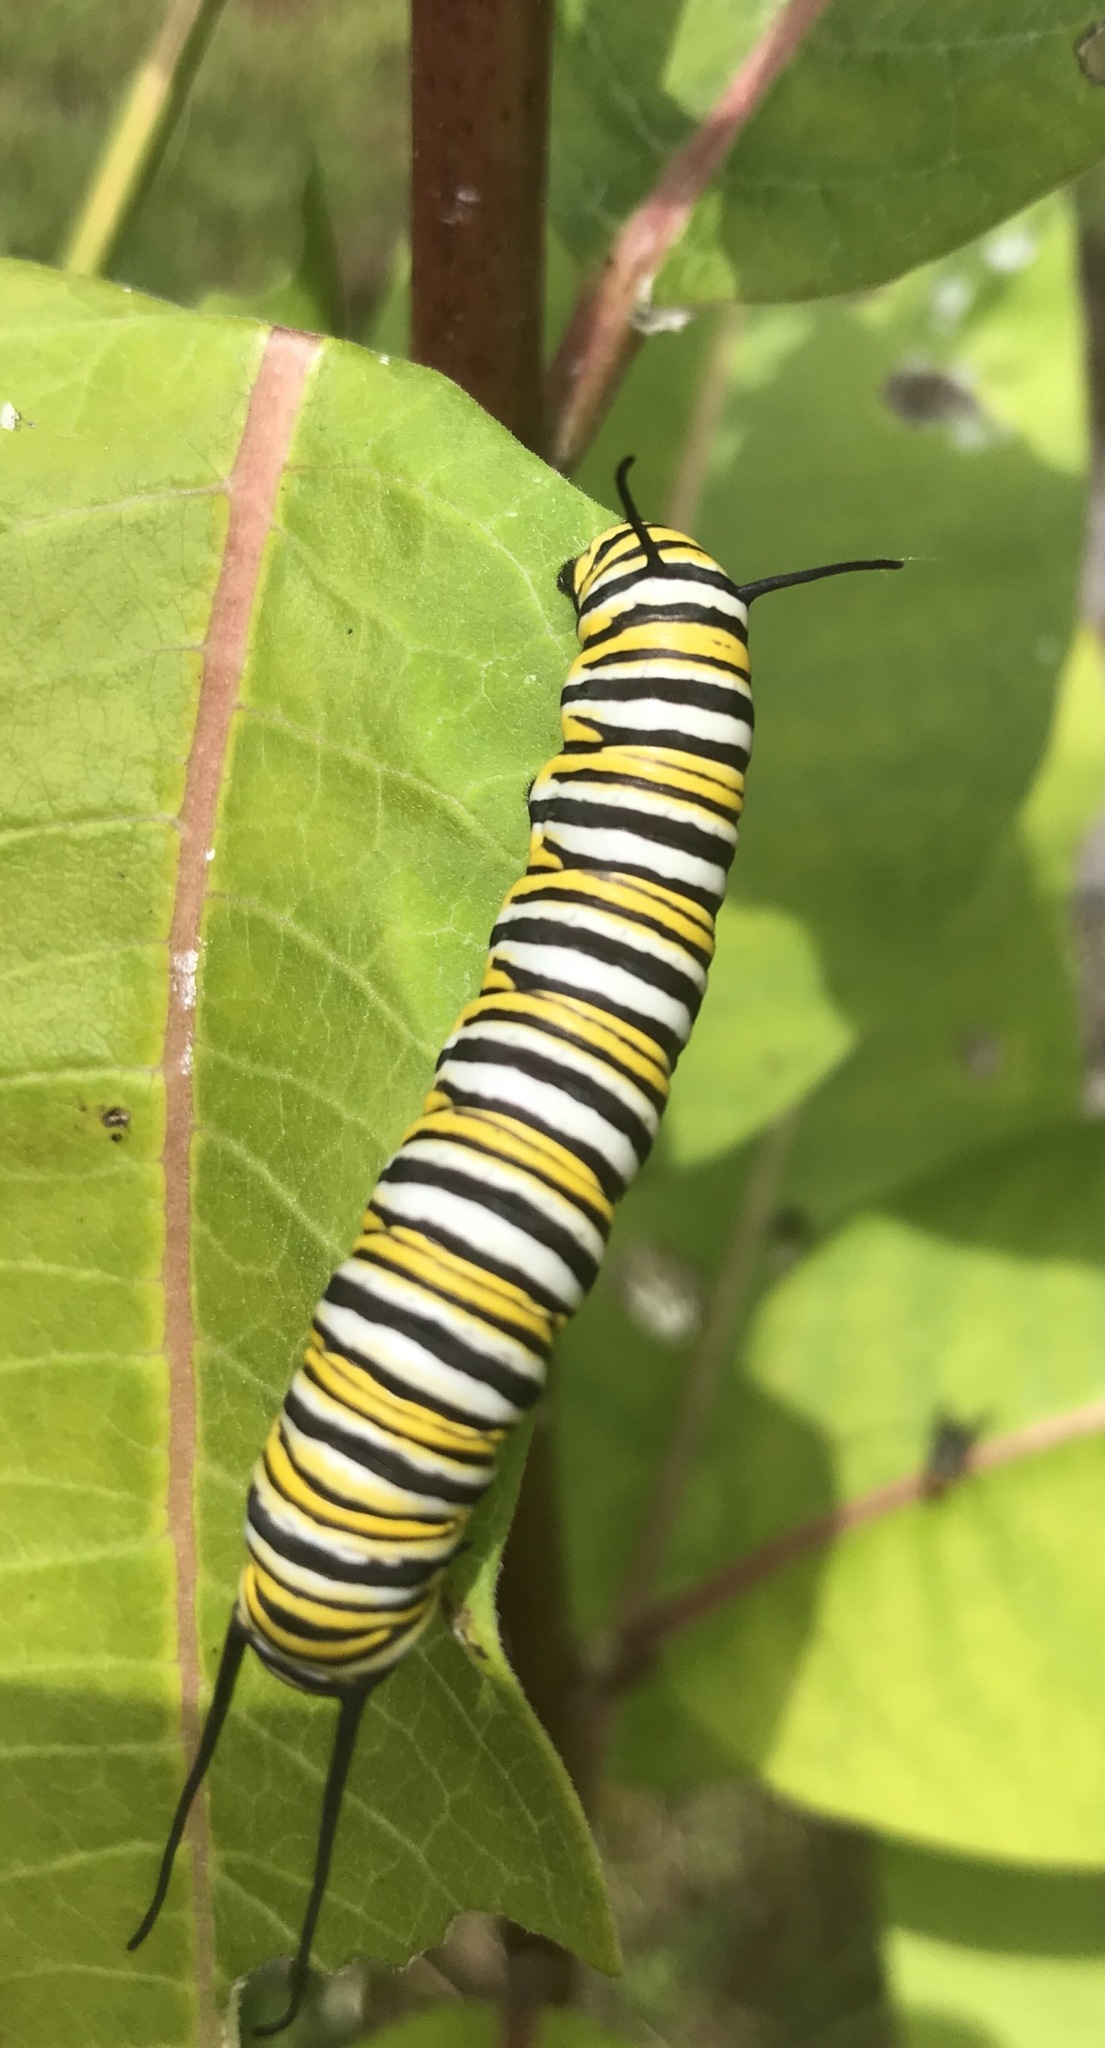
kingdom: Animalia
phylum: Arthropoda
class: Insecta
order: Lepidoptera
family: Nymphalidae
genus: Danaus
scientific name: Danaus plexippus
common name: Monarch
